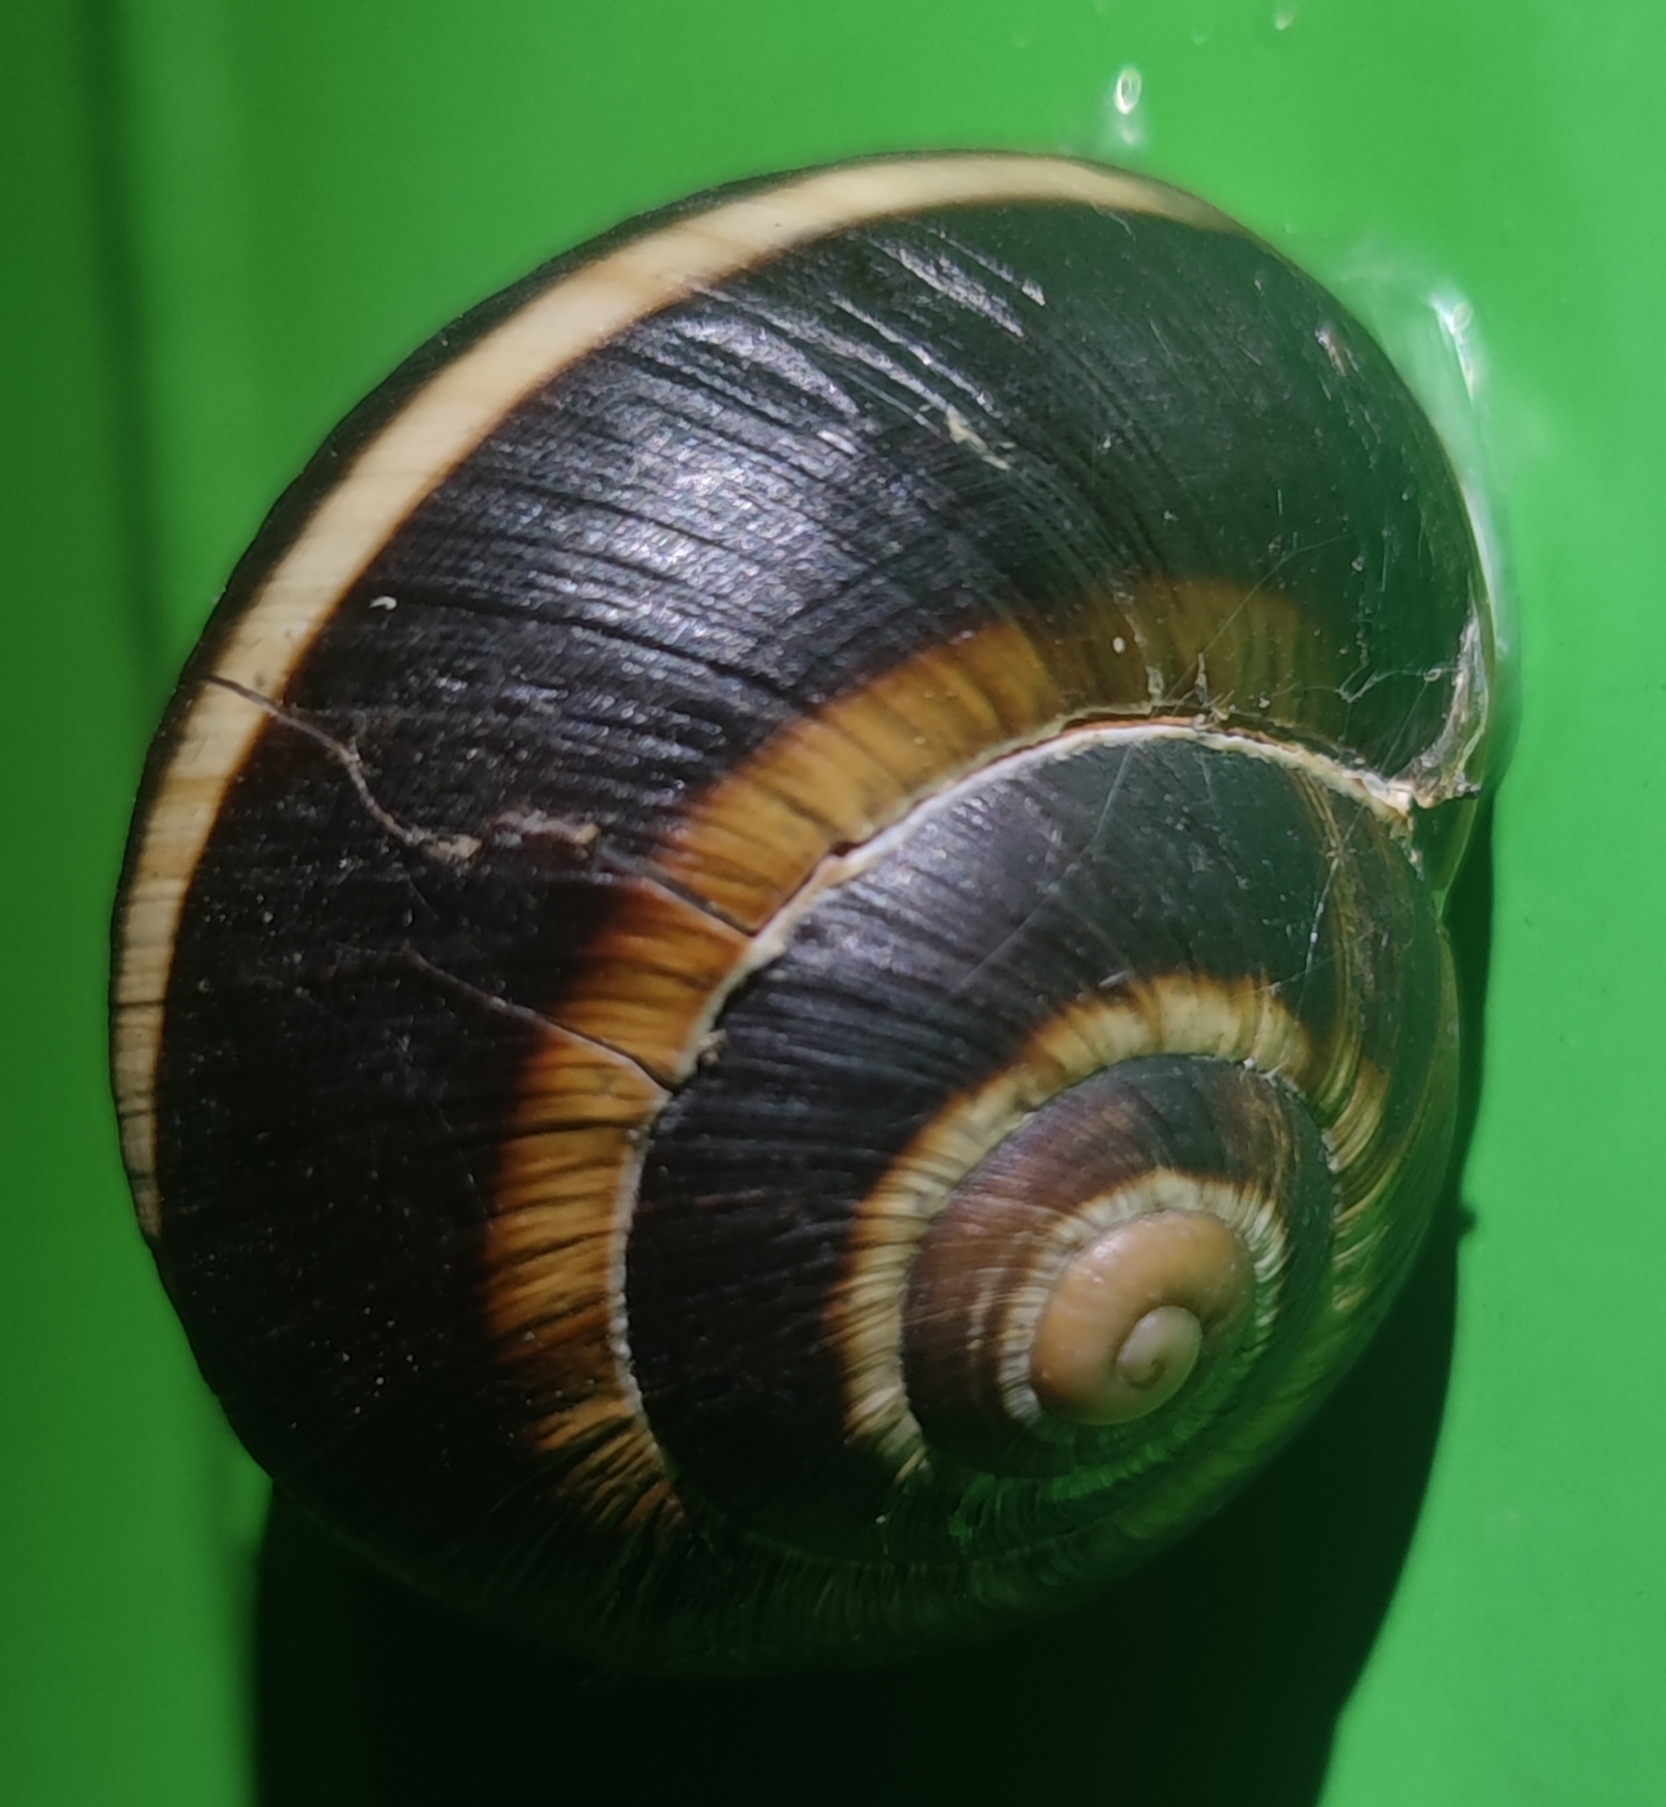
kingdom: Animalia
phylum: Mollusca
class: Gastropoda
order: Stylommatophora
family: Helicidae
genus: Helix
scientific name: Helix lucorum
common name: Turkish snail
